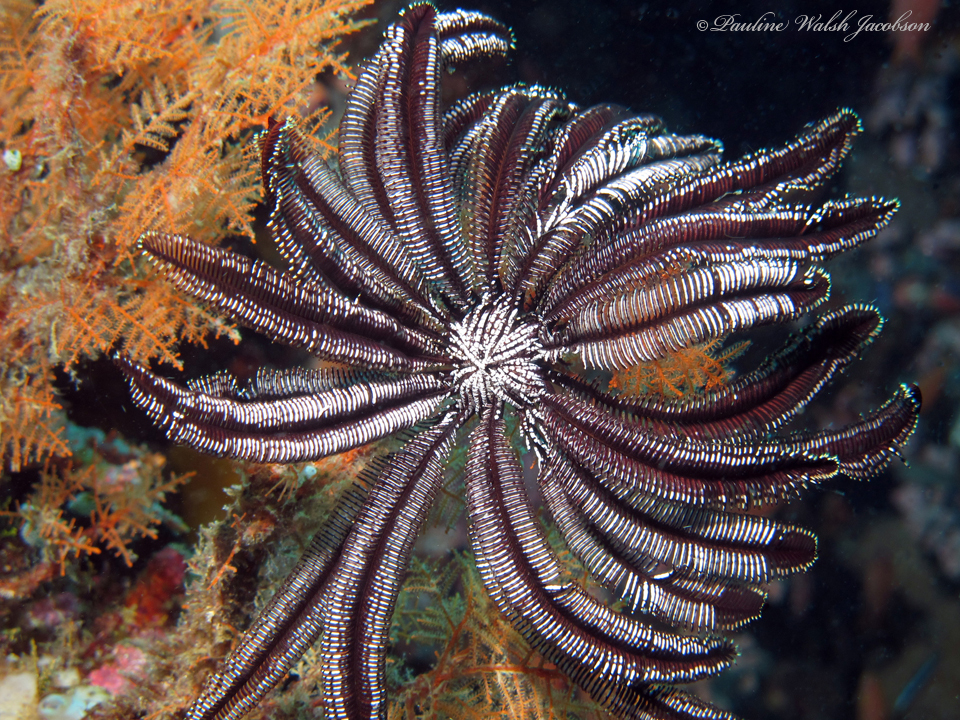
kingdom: Animalia
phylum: Echinodermata
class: Crinoidea
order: Comatulida
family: Colobometridae
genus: Cenometra
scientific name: Cenometra bella
